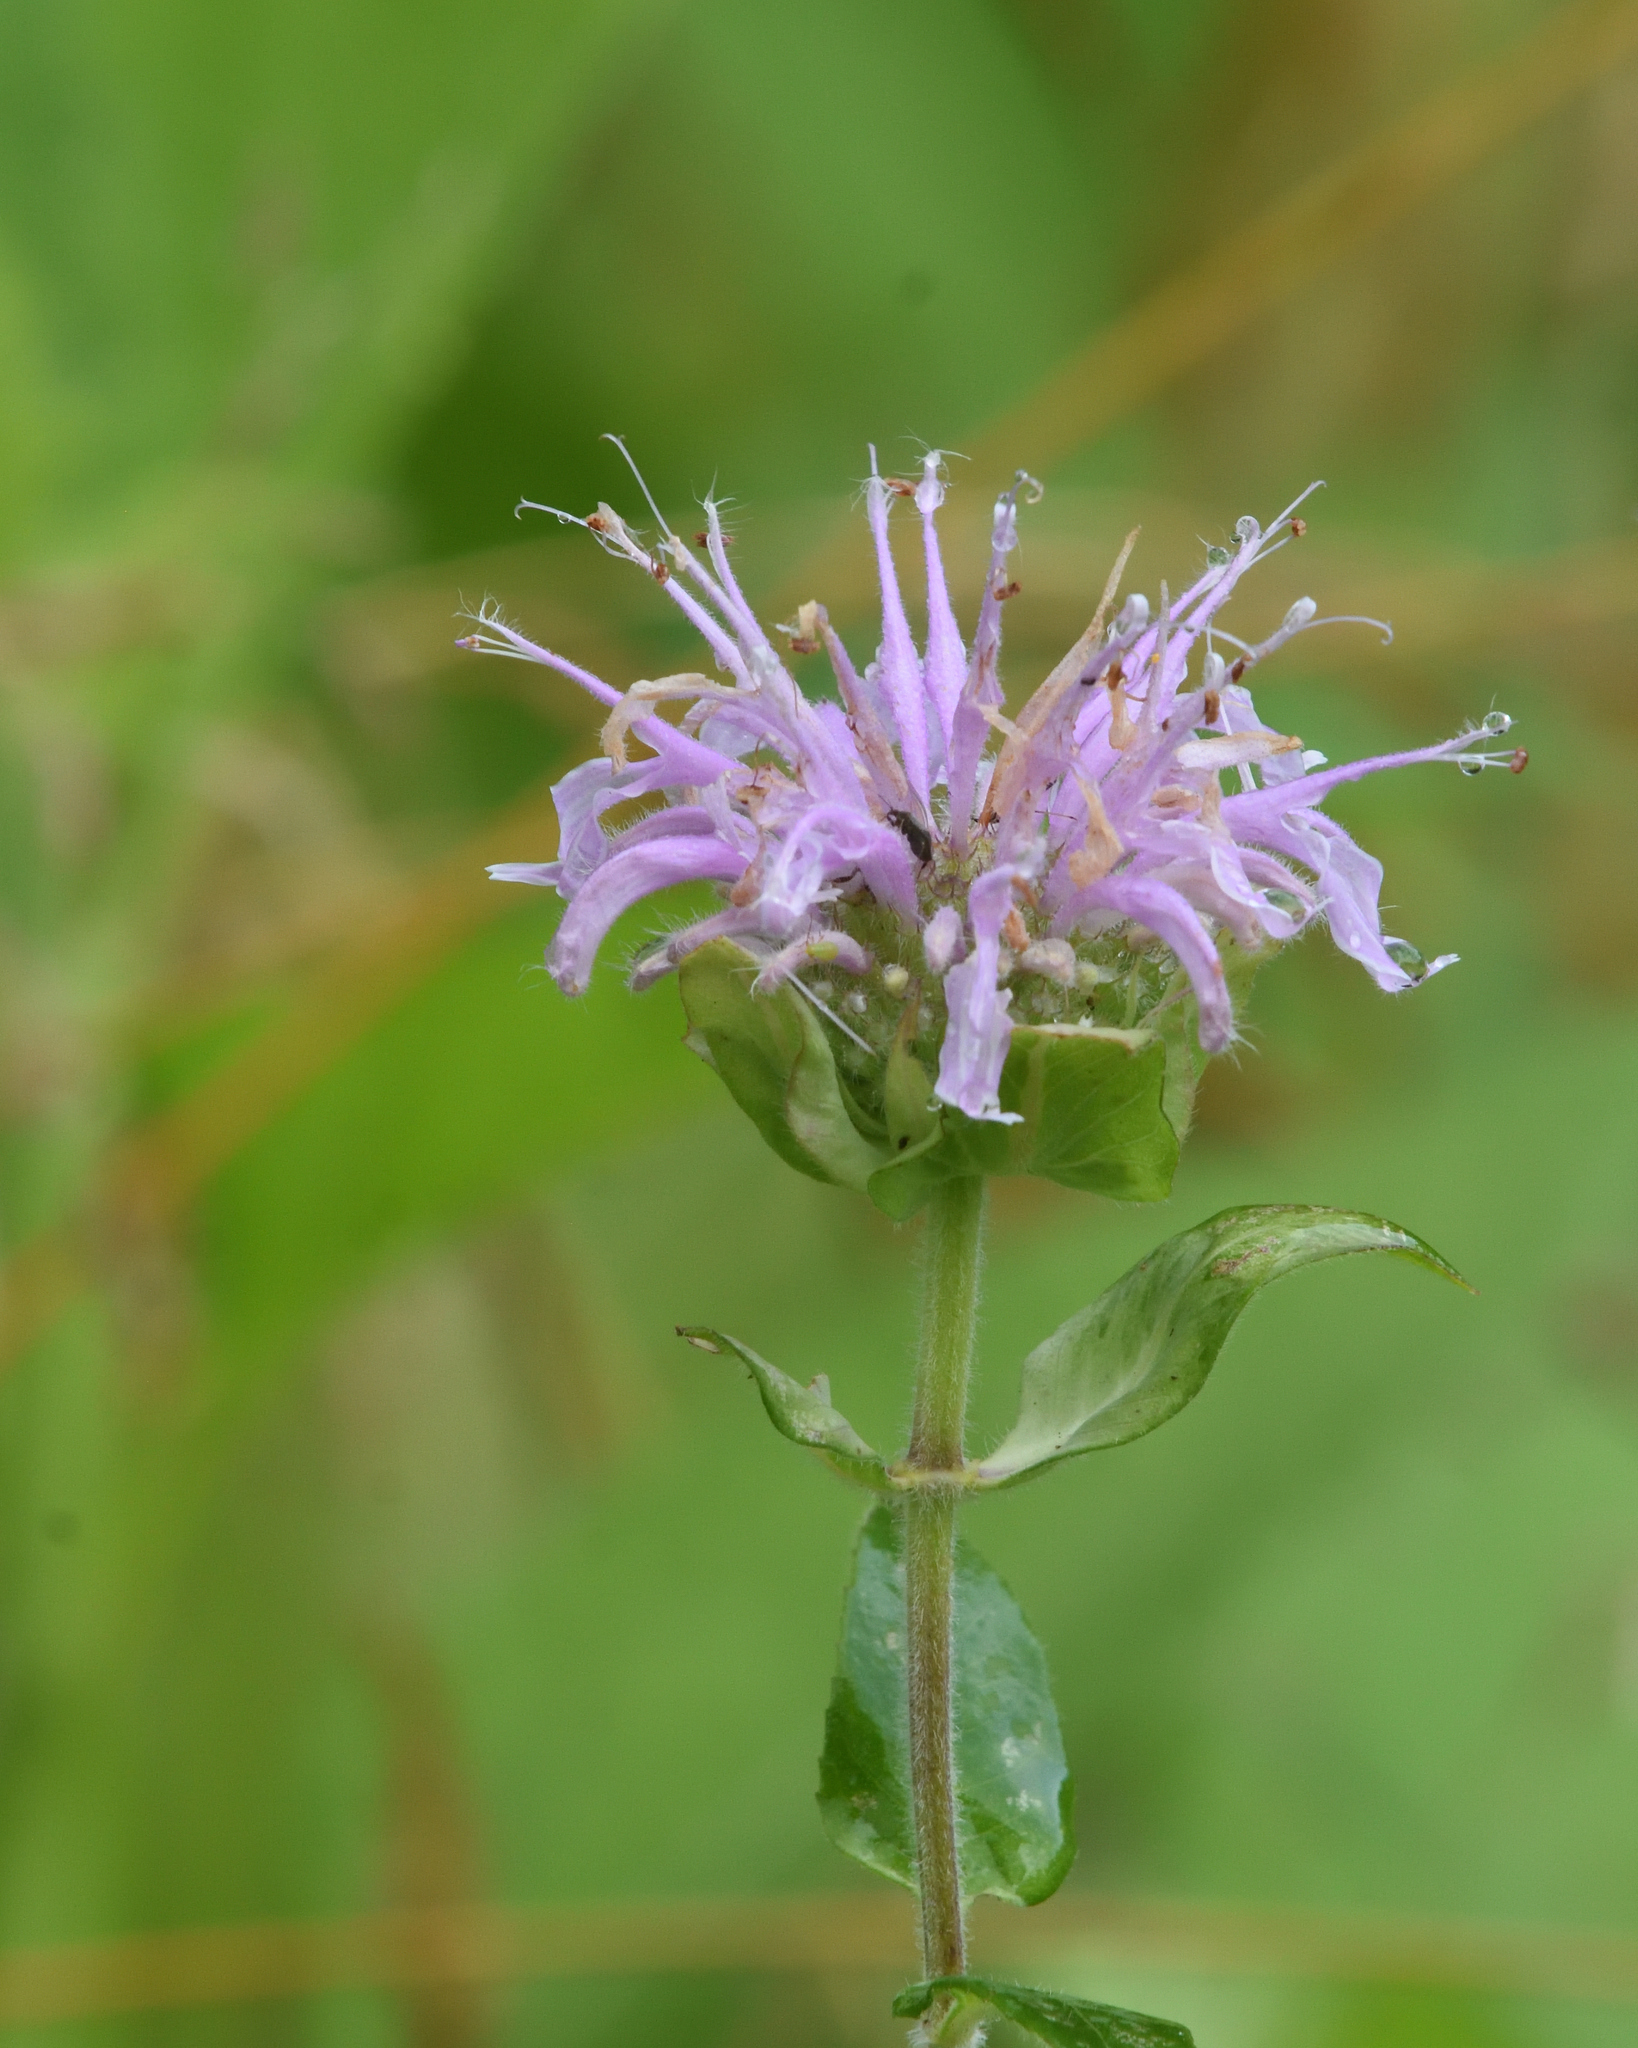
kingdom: Plantae
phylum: Tracheophyta
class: Magnoliopsida
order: Lamiales
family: Lamiaceae
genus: Monarda
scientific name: Monarda fistulosa
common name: Purple beebalm
